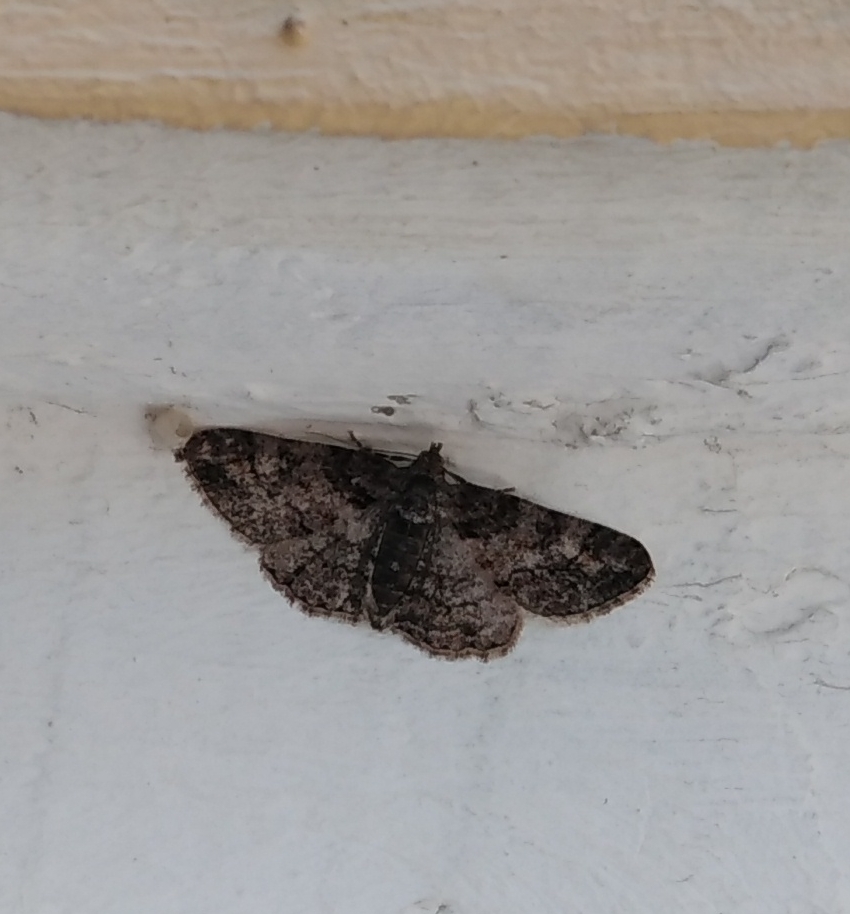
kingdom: Animalia
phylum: Arthropoda
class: Insecta
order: Lepidoptera
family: Geometridae
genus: Cleora
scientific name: Cleora cinctaria
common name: Ringed carpet
